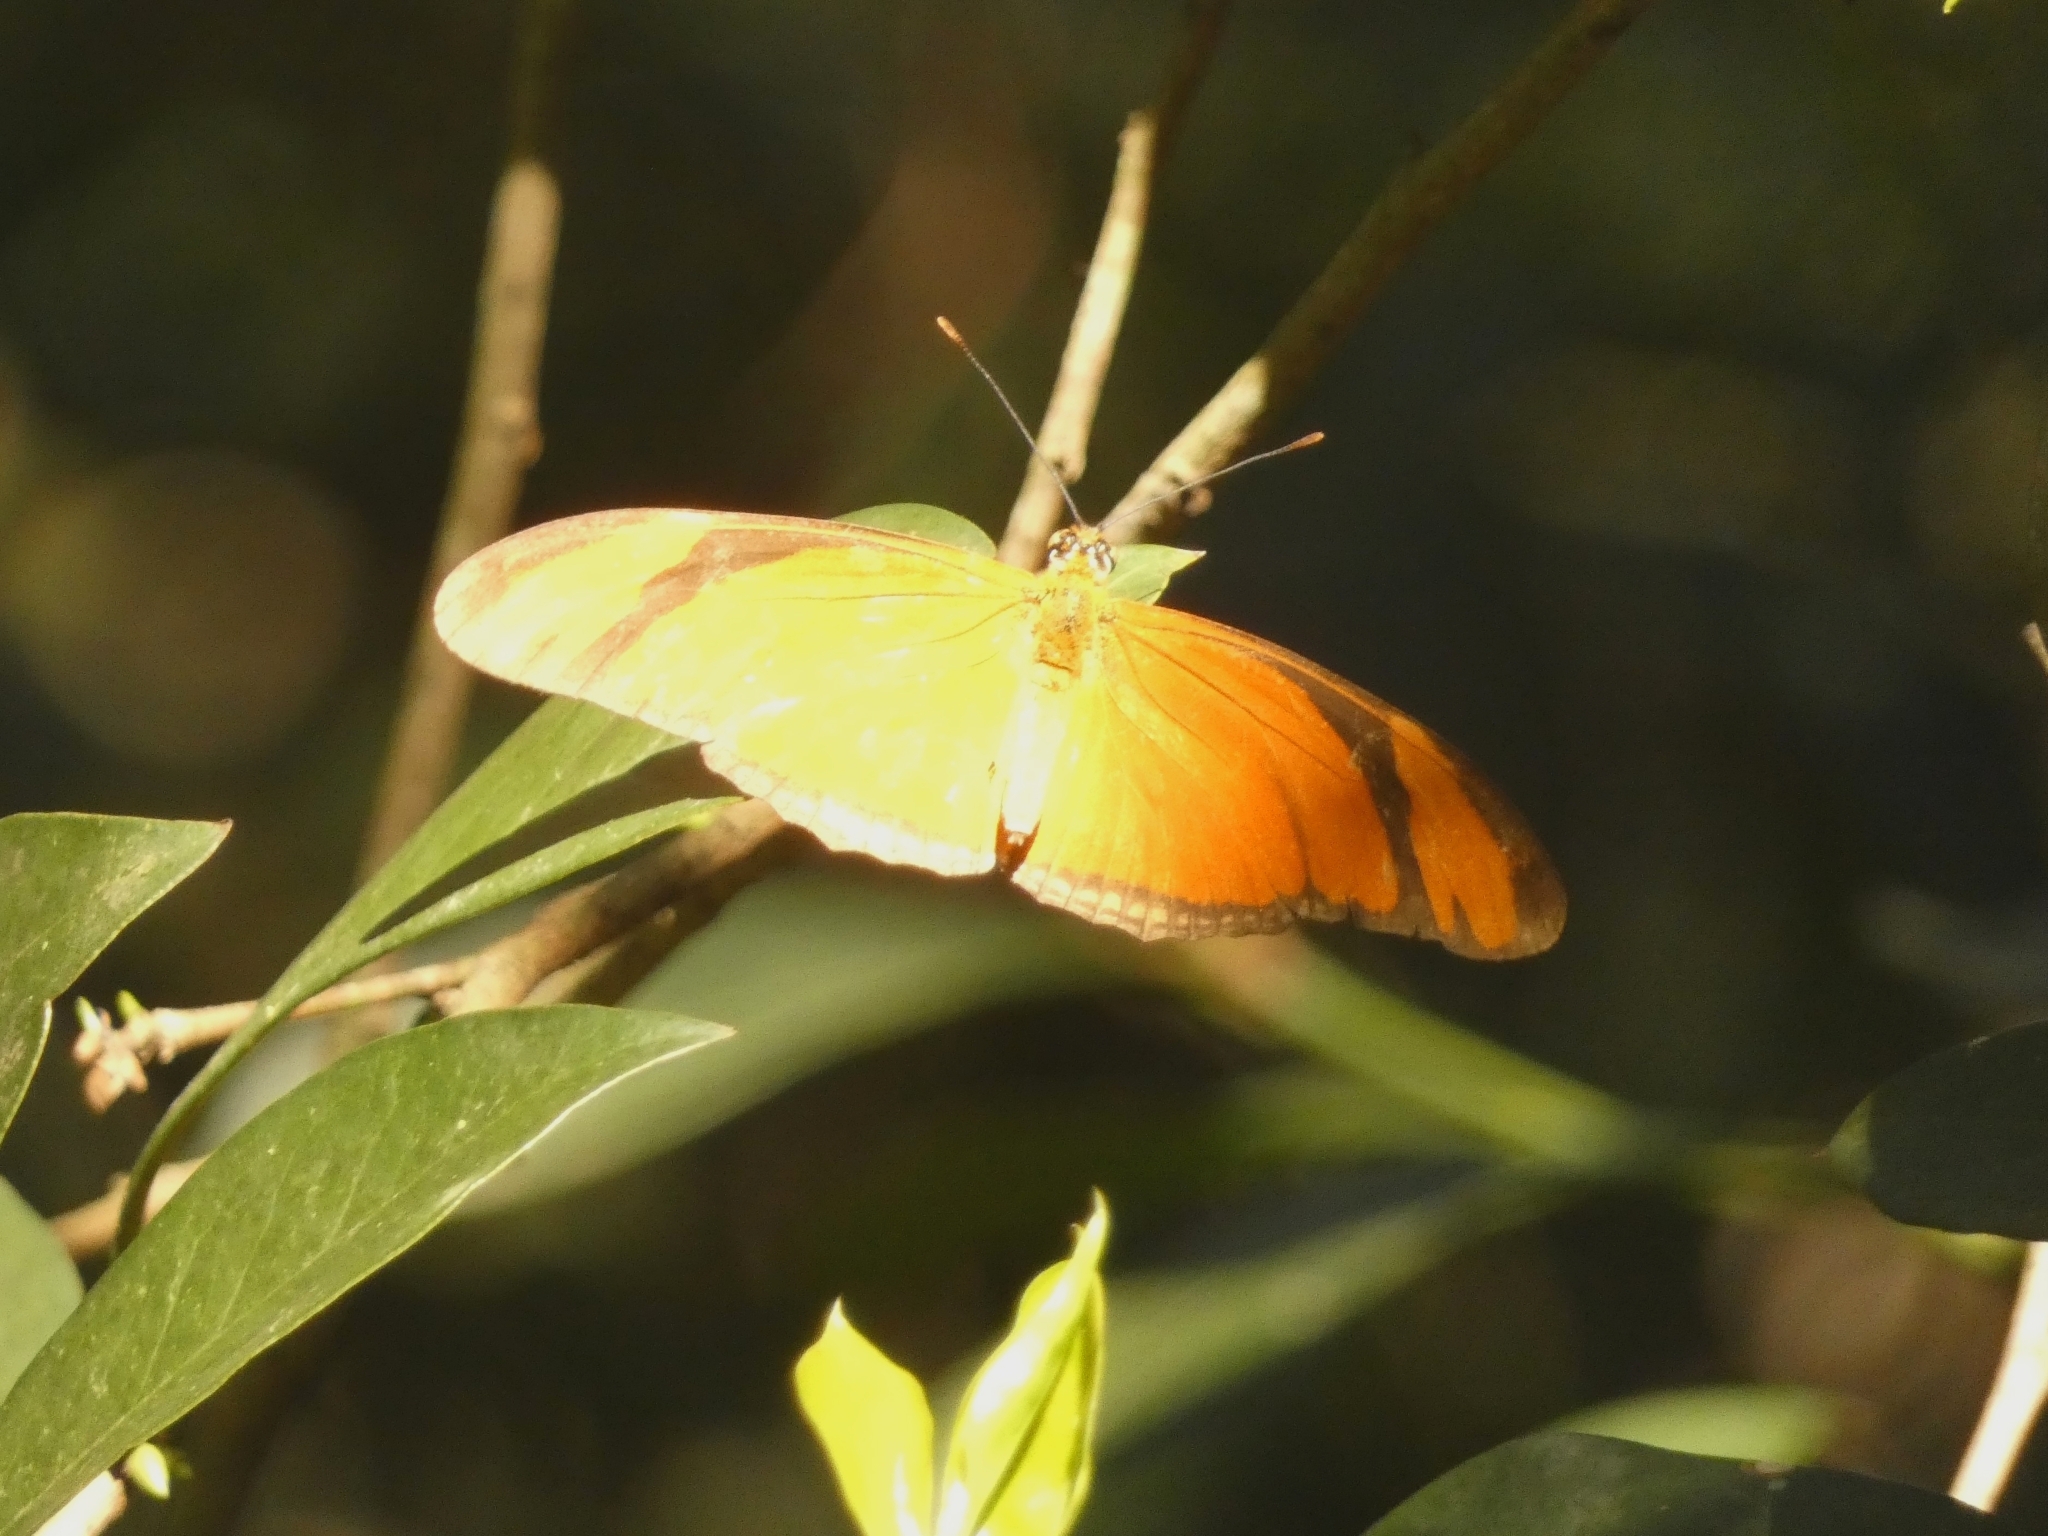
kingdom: Animalia
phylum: Arthropoda
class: Insecta
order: Lepidoptera
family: Nymphalidae
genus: Dryas
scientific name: Dryas iulia
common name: Flambeau
